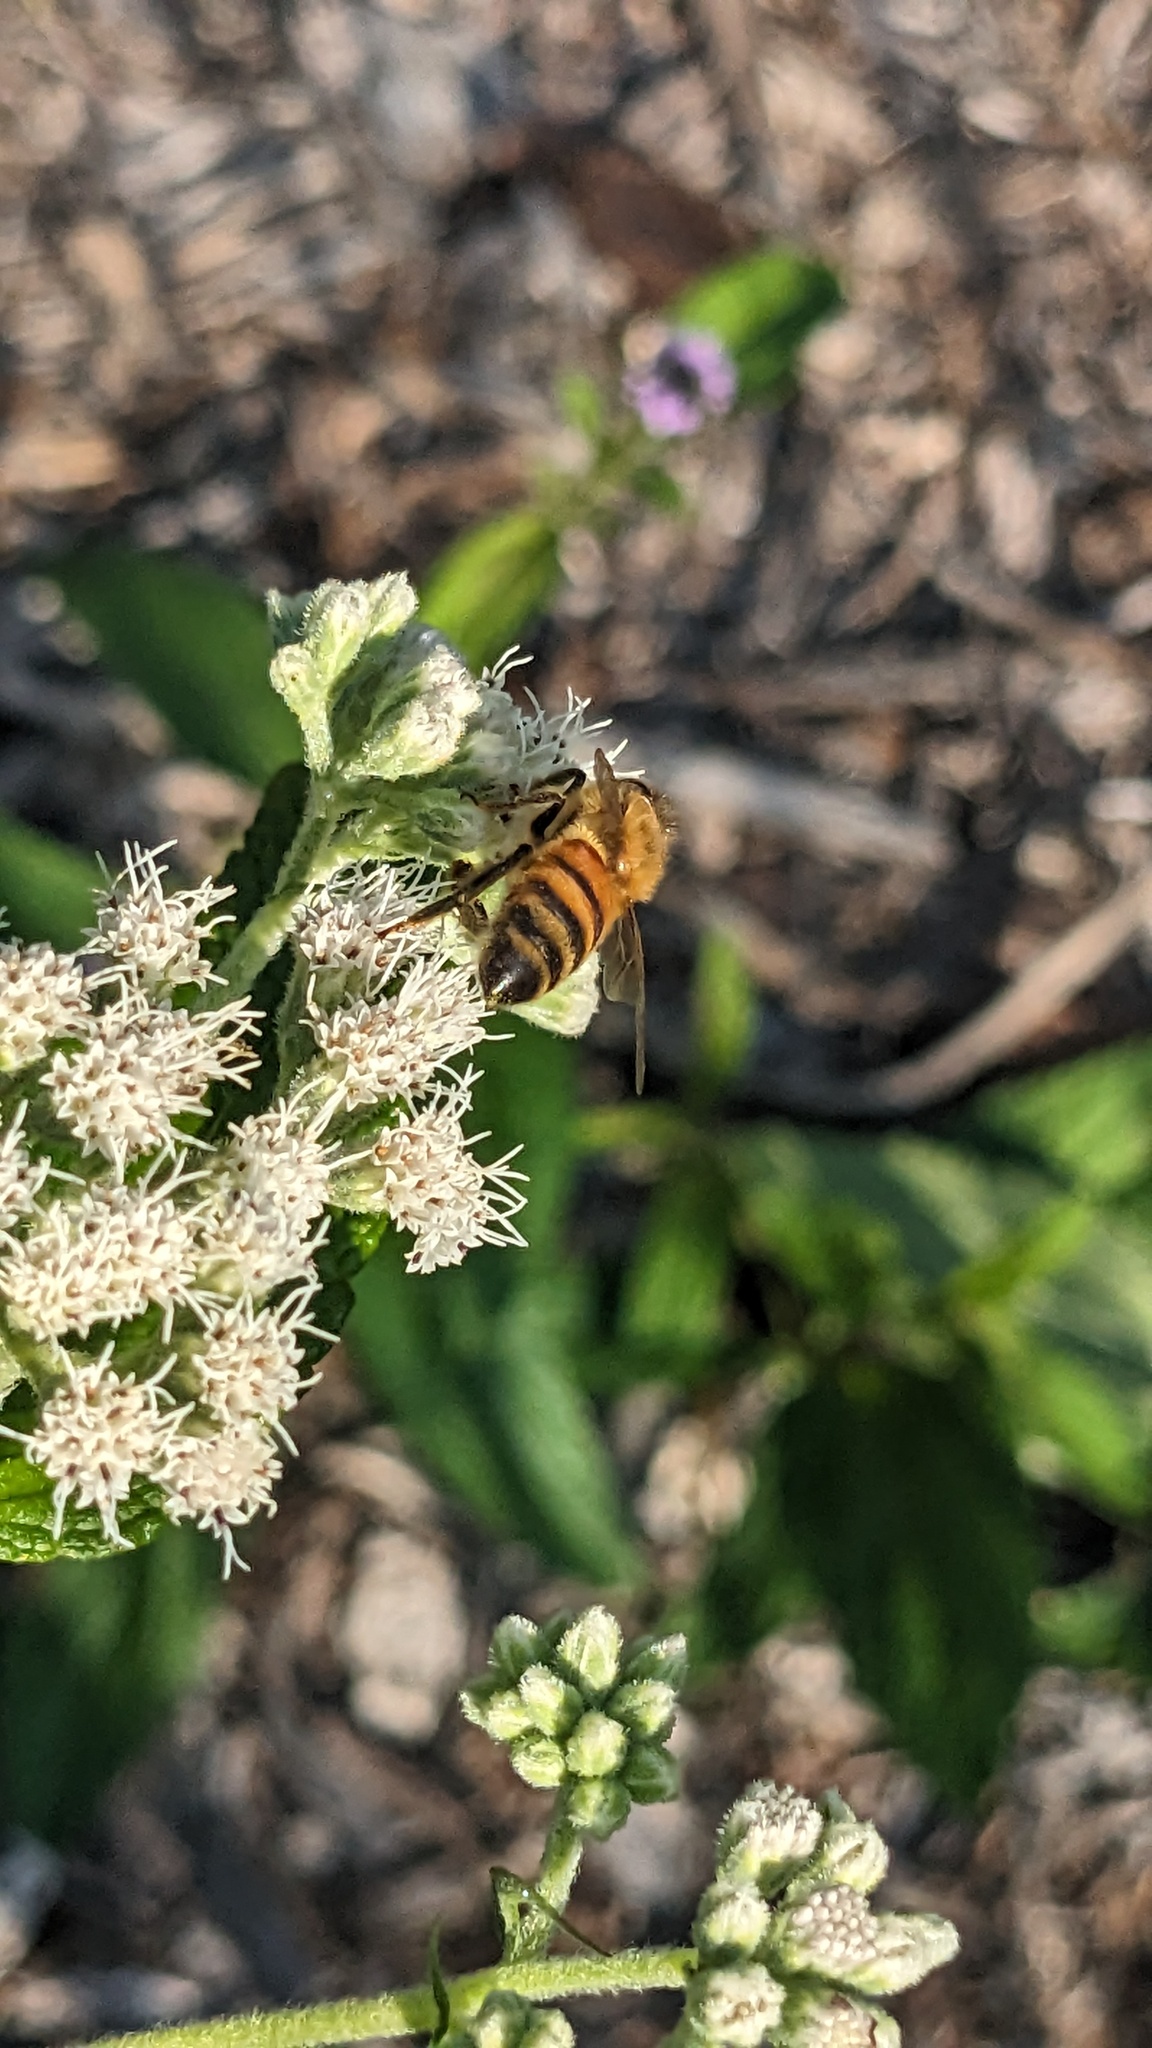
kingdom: Animalia
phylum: Arthropoda
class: Insecta
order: Hymenoptera
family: Apidae
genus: Apis
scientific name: Apis mellifera
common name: Honey bee
